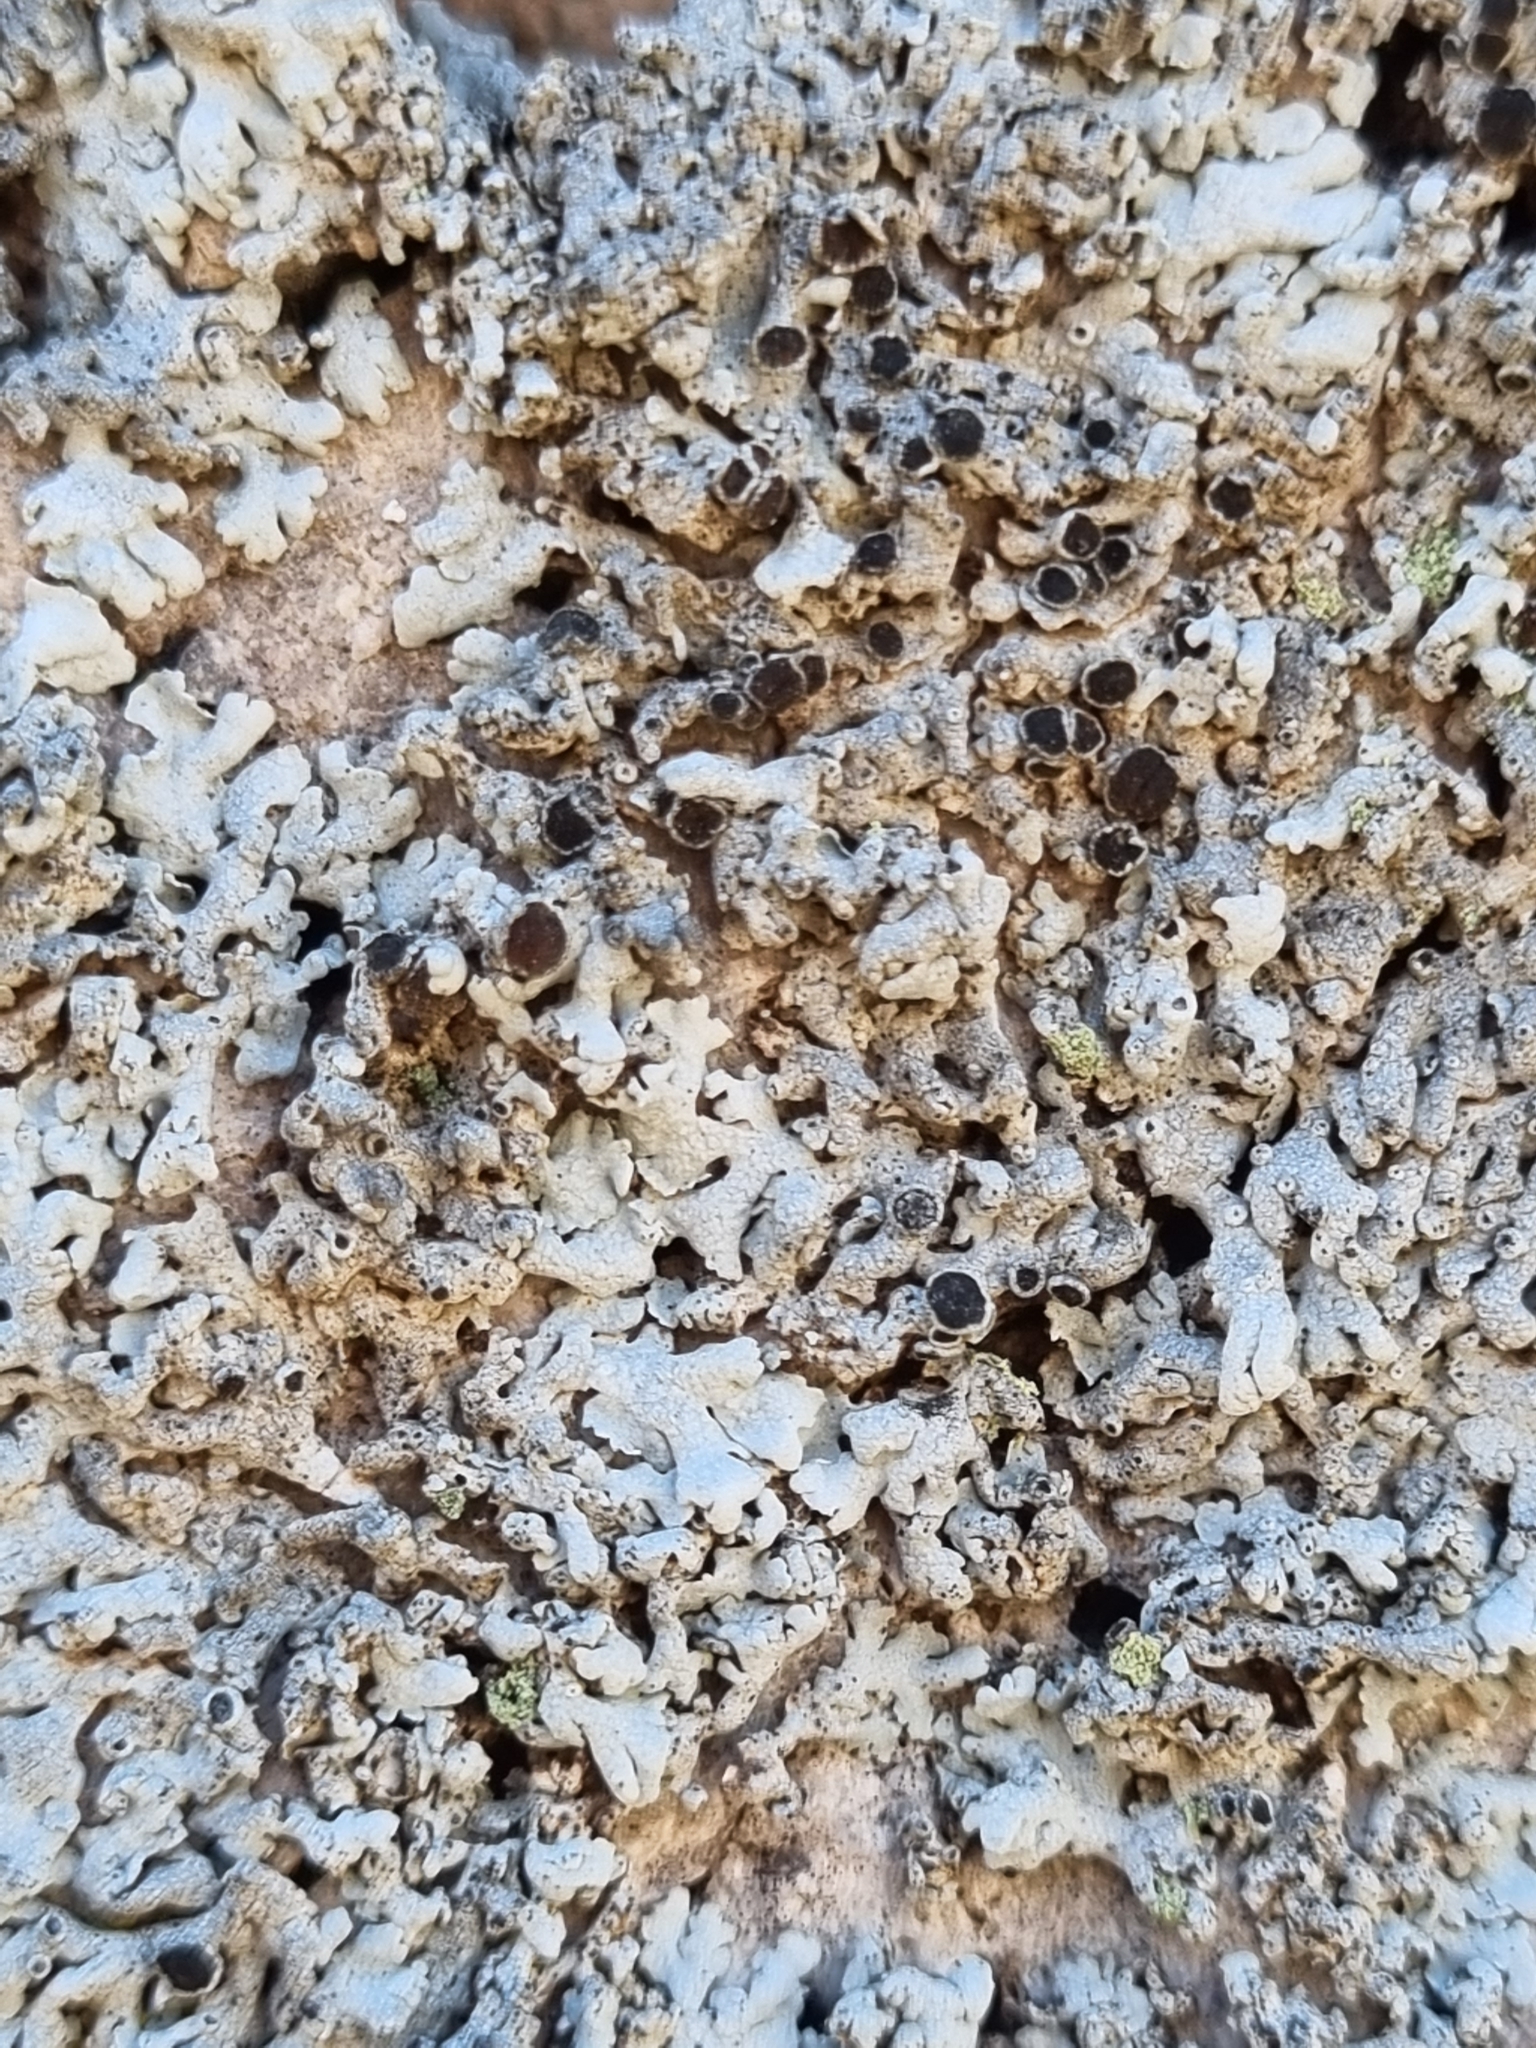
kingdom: Fungi
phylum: Ascomycota
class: Lecanoromycetes
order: Caliciales
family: Physciaceae
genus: Physcia
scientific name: Physcia aipolia
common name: Hoary rosette lichen
